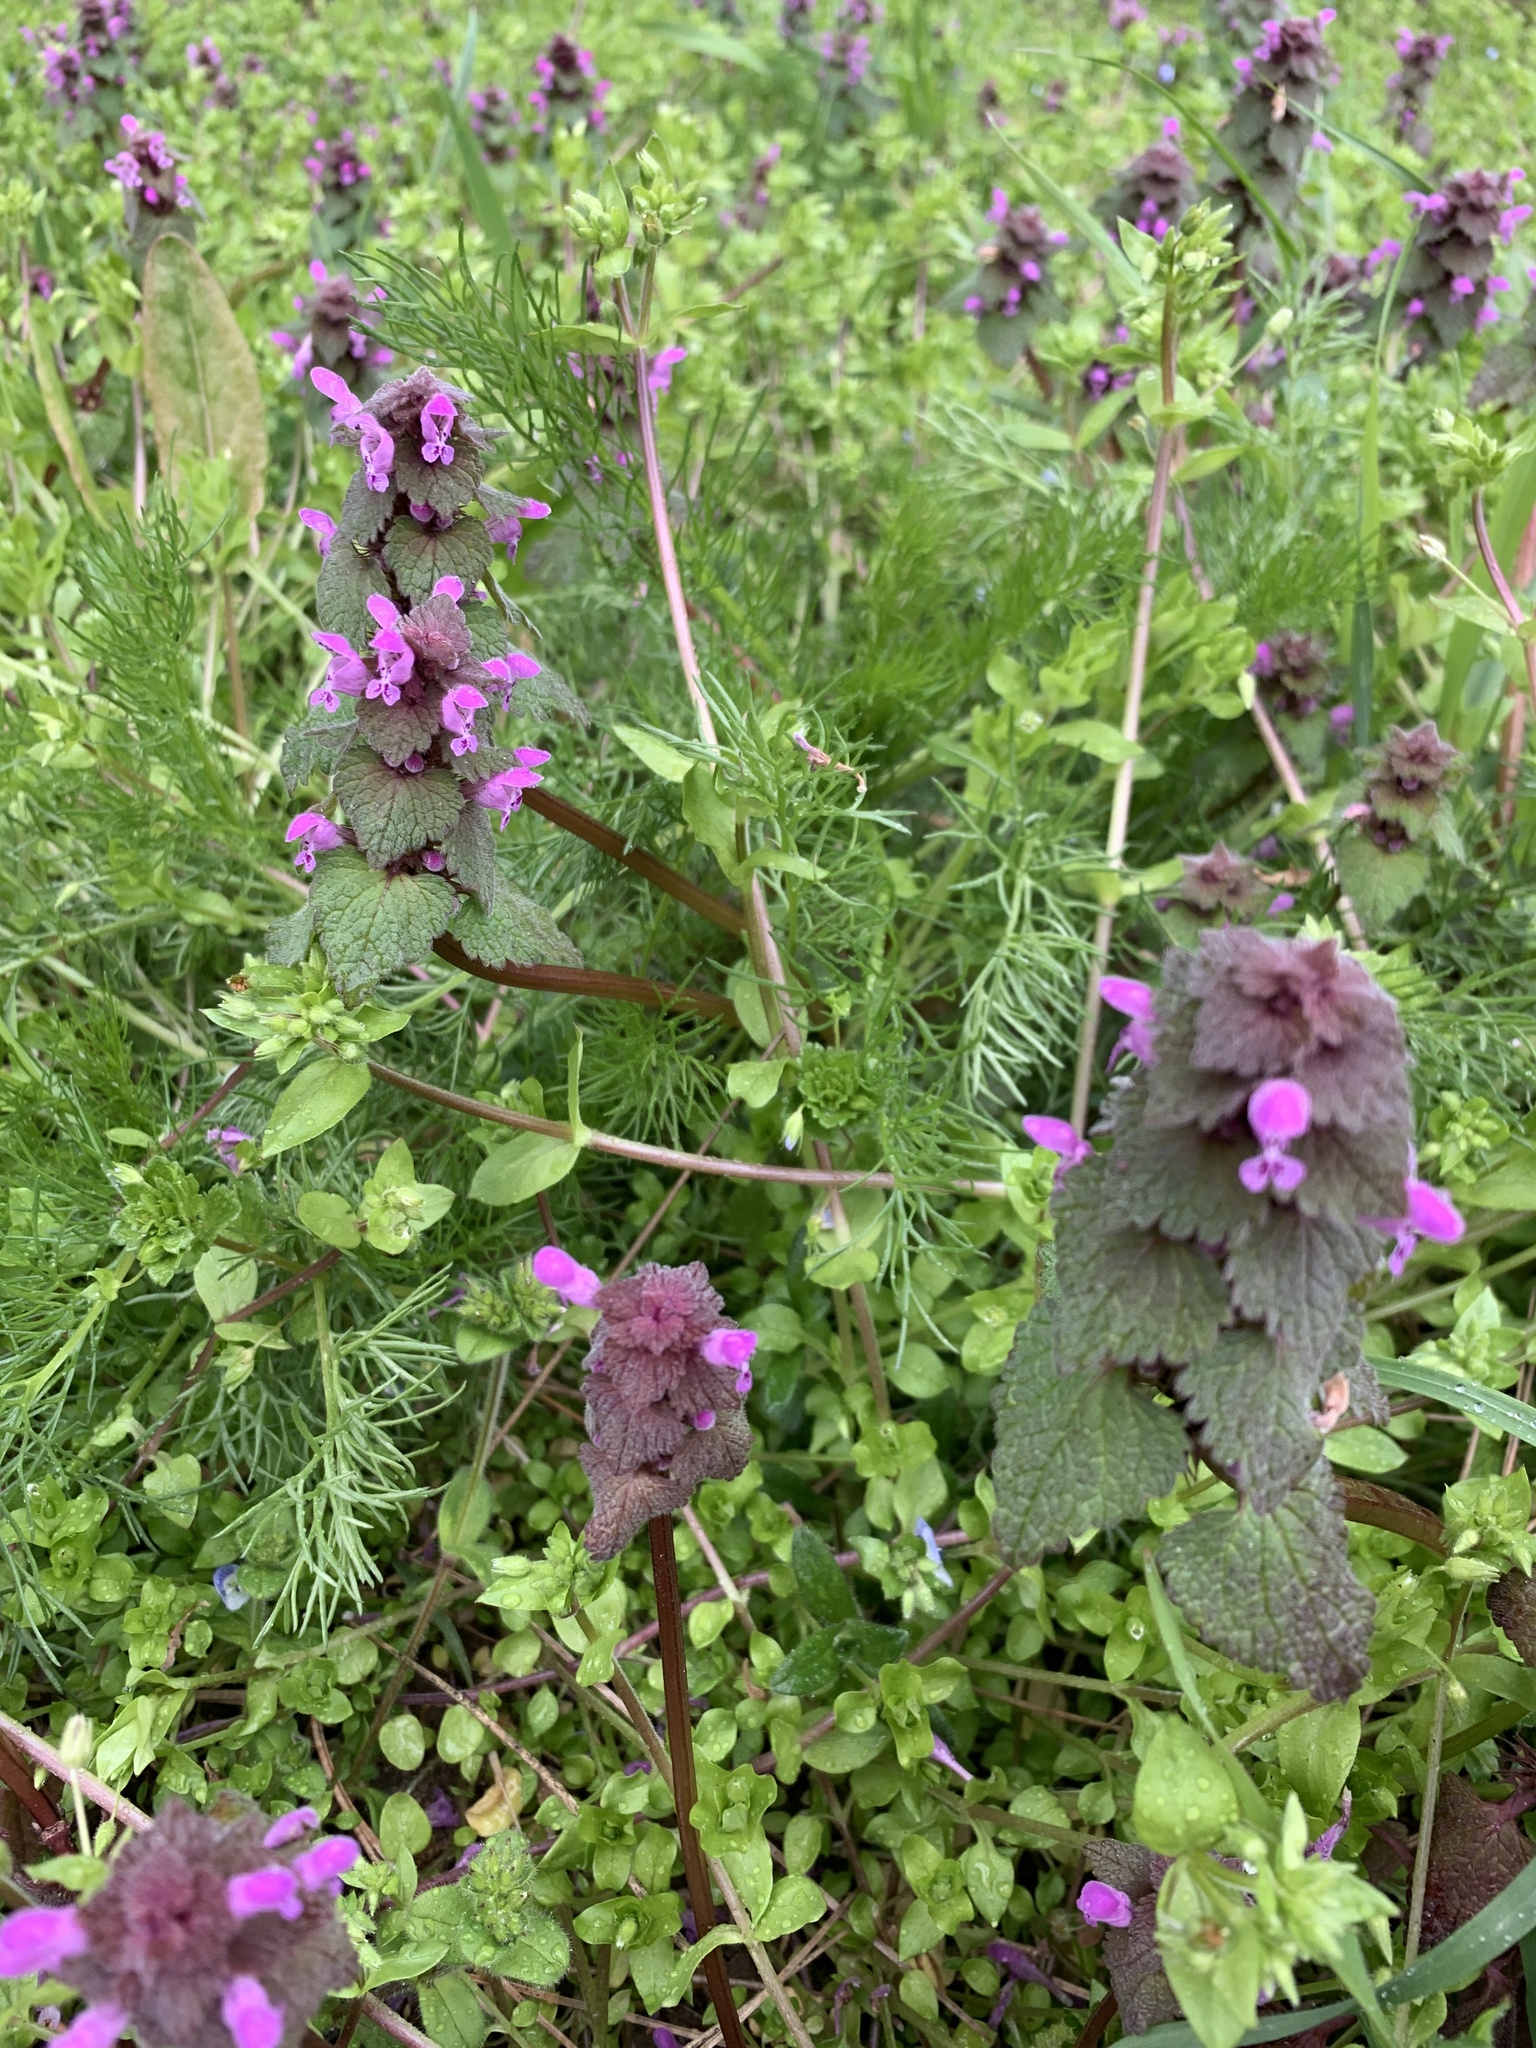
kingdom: Plantae
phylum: Tracheophyta
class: Magnoliopsida
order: Lamiales
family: Lamiaceae
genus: Lamium
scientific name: Lamium purpureum
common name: Red dead-nettle
